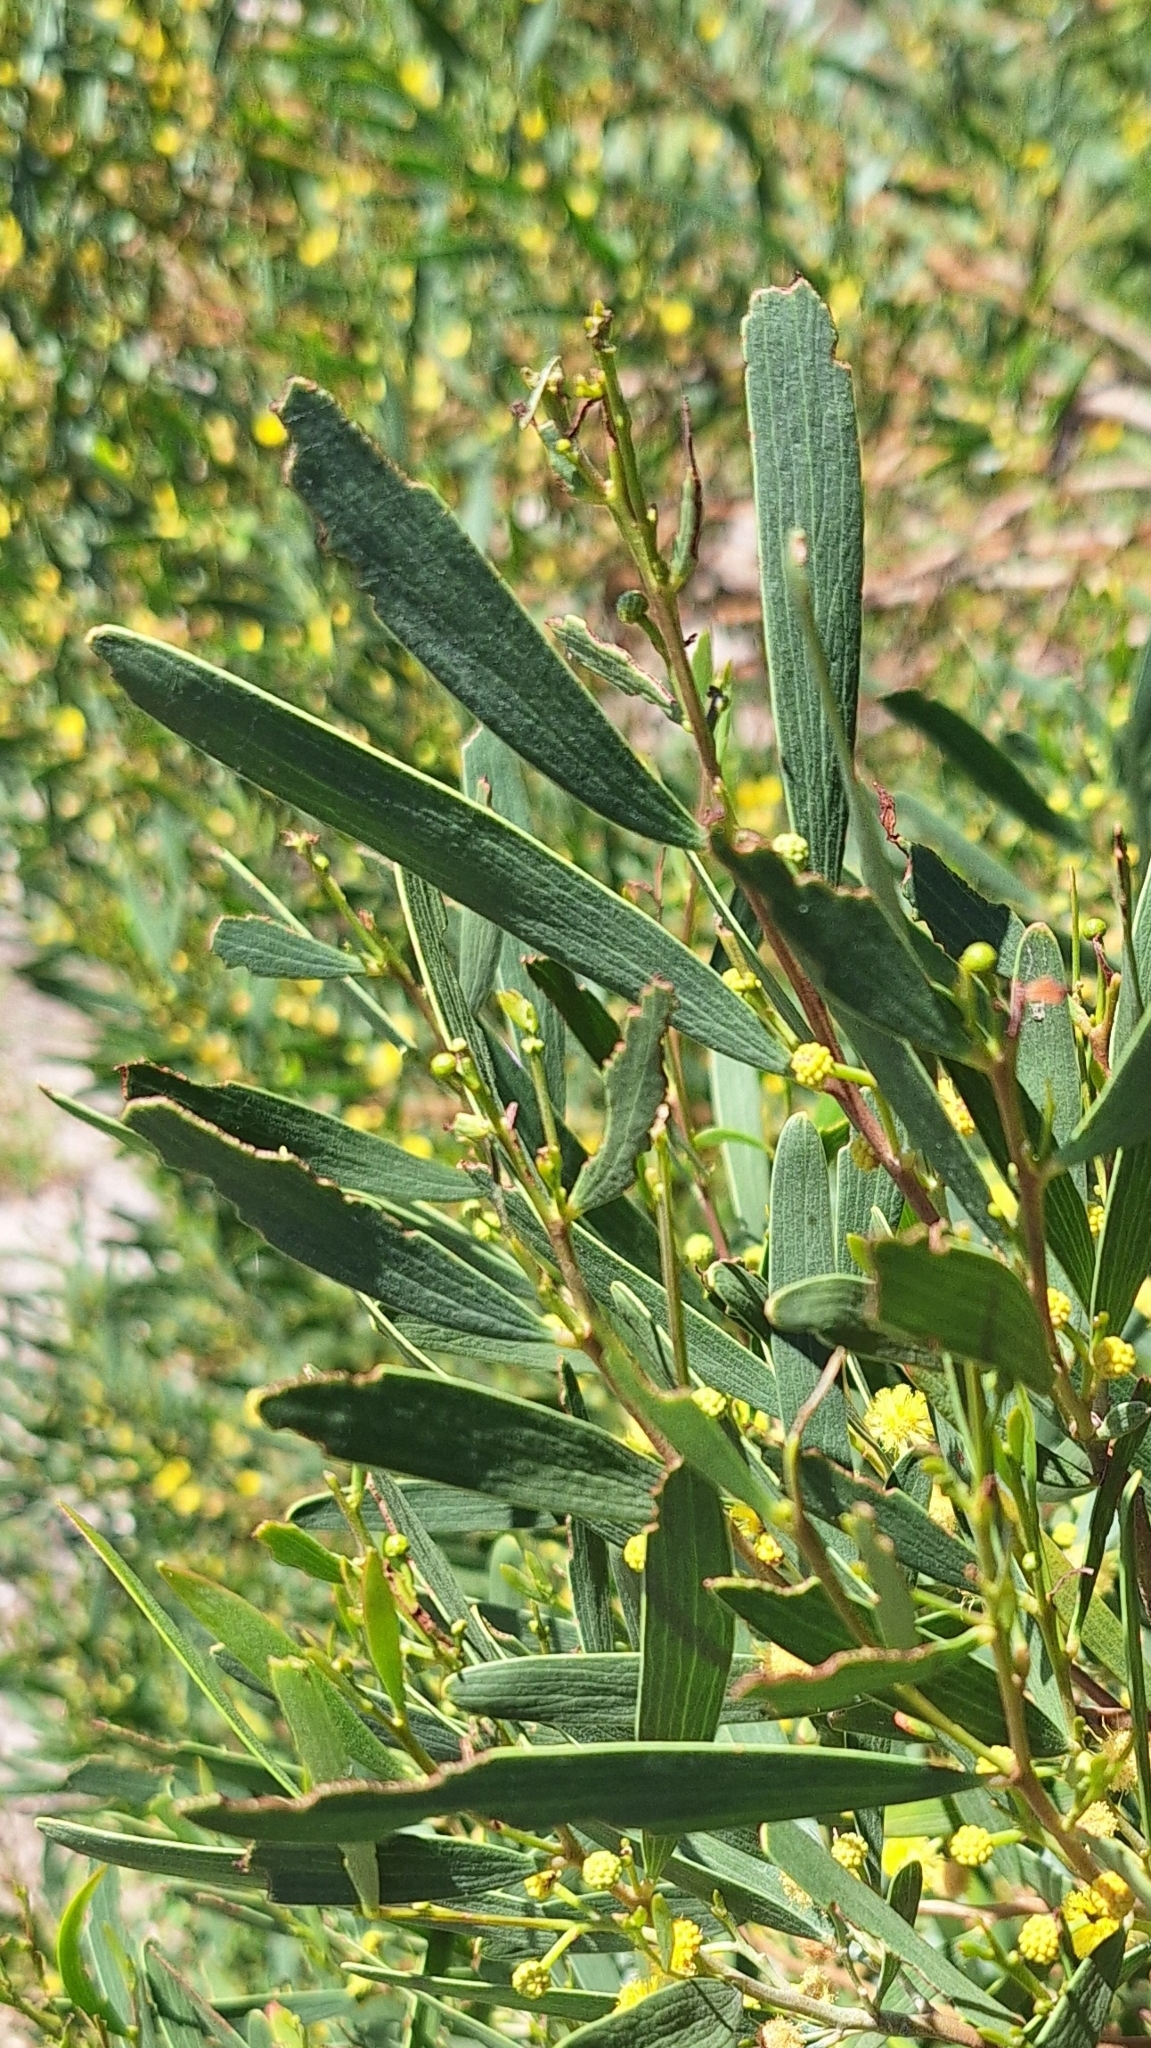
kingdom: Plantae
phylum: Tracheophyta
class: Magnoliopsida
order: Fabales
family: Fabaceae
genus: Acacia
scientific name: Acacia cyclops
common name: Coastal wattle
